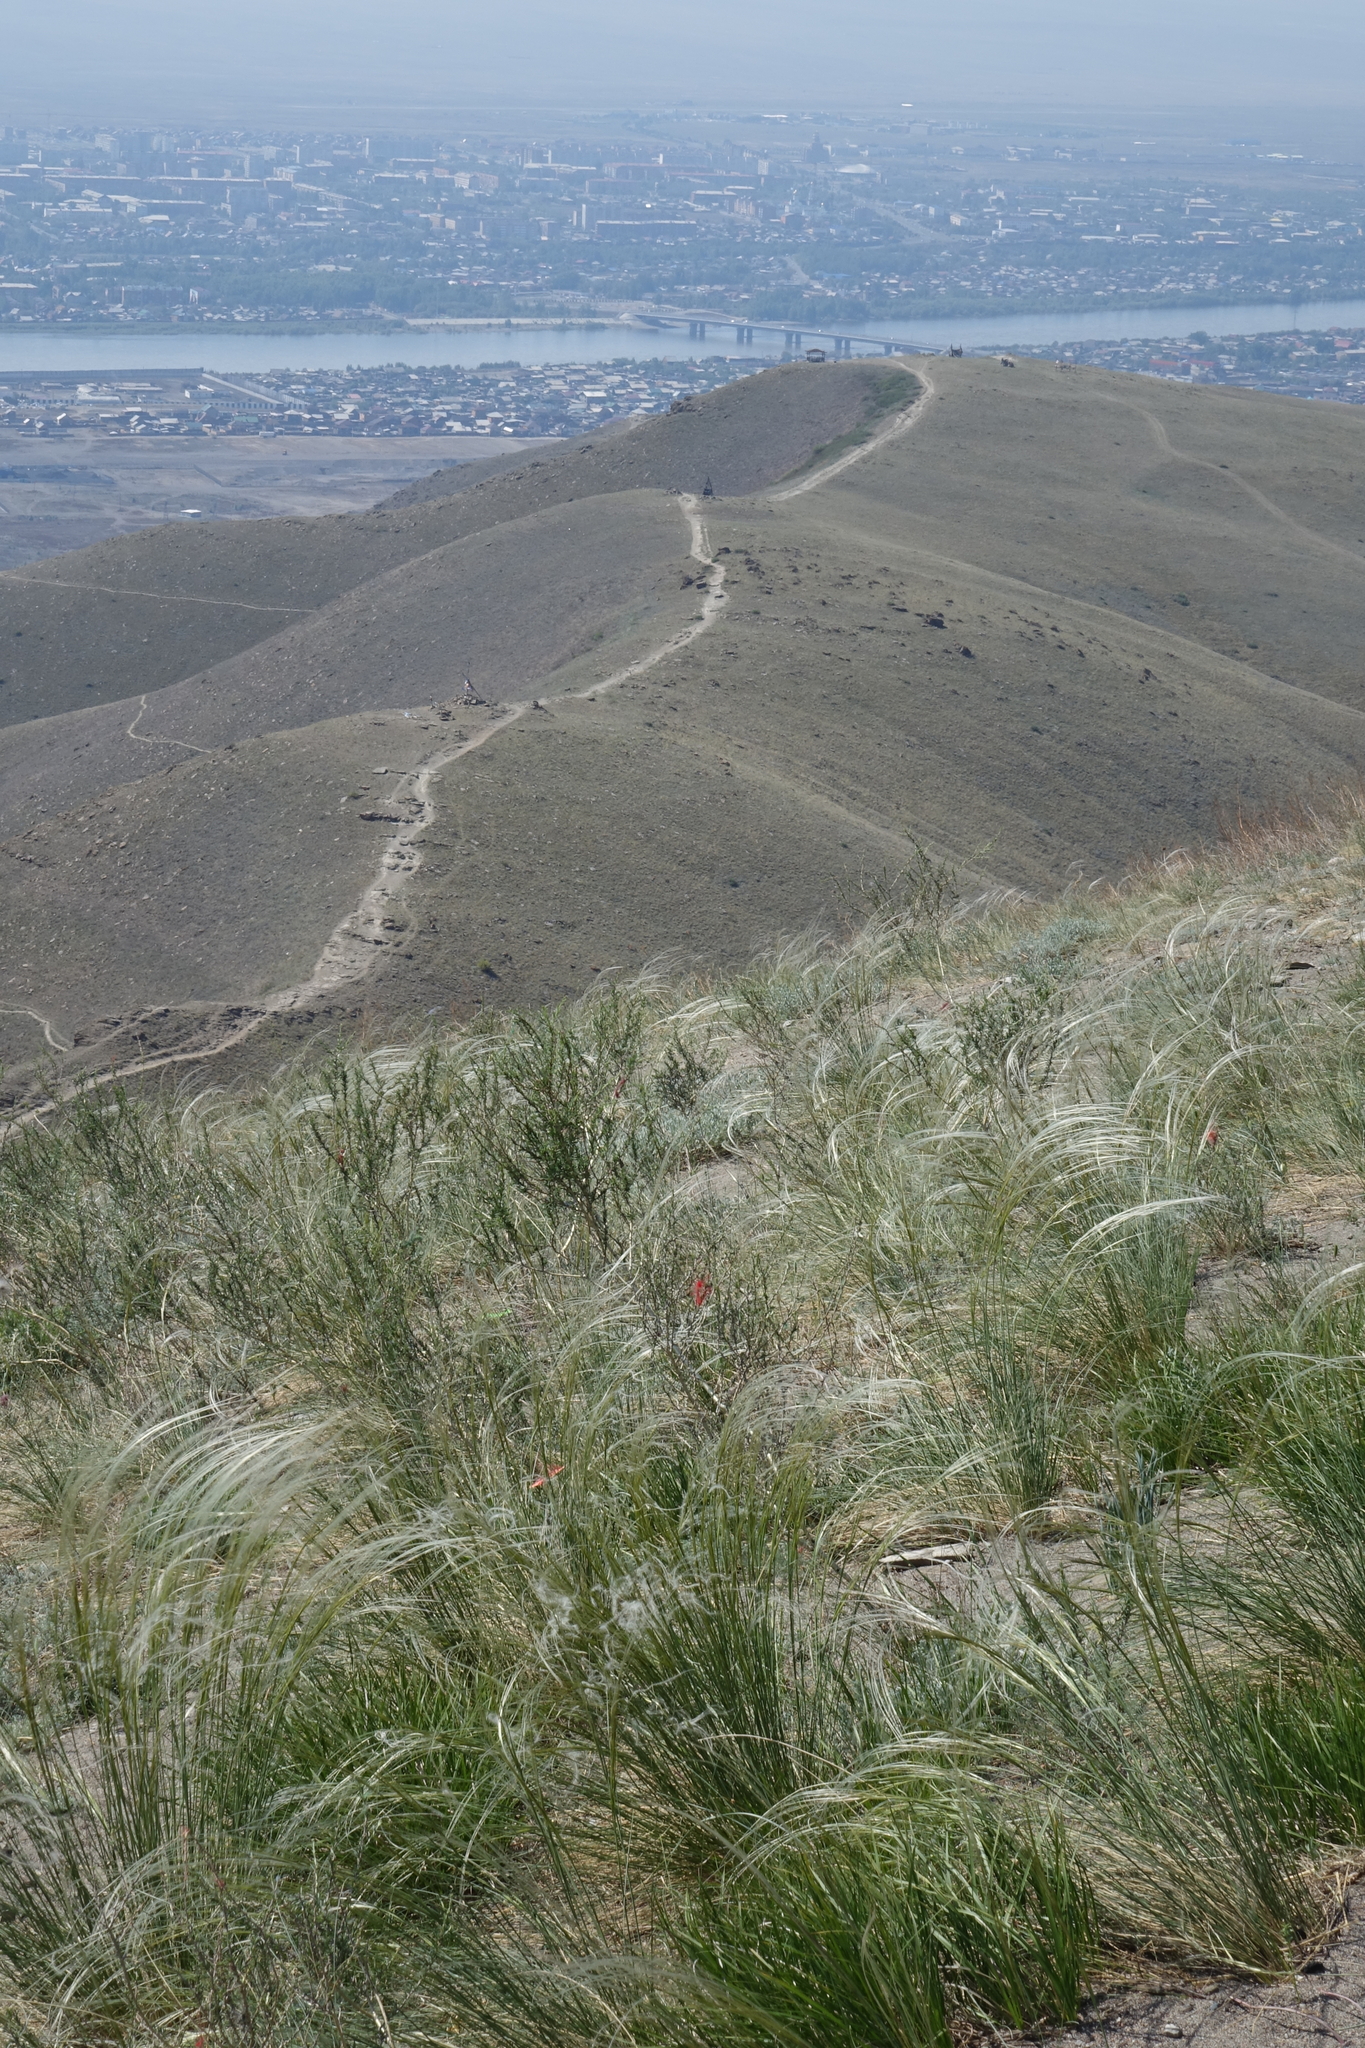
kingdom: Plantae
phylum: Tracheophyta
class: Liliopsida
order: Poales
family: Poaceae
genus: Stipa
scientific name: Stipa pennata
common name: European feather grass
